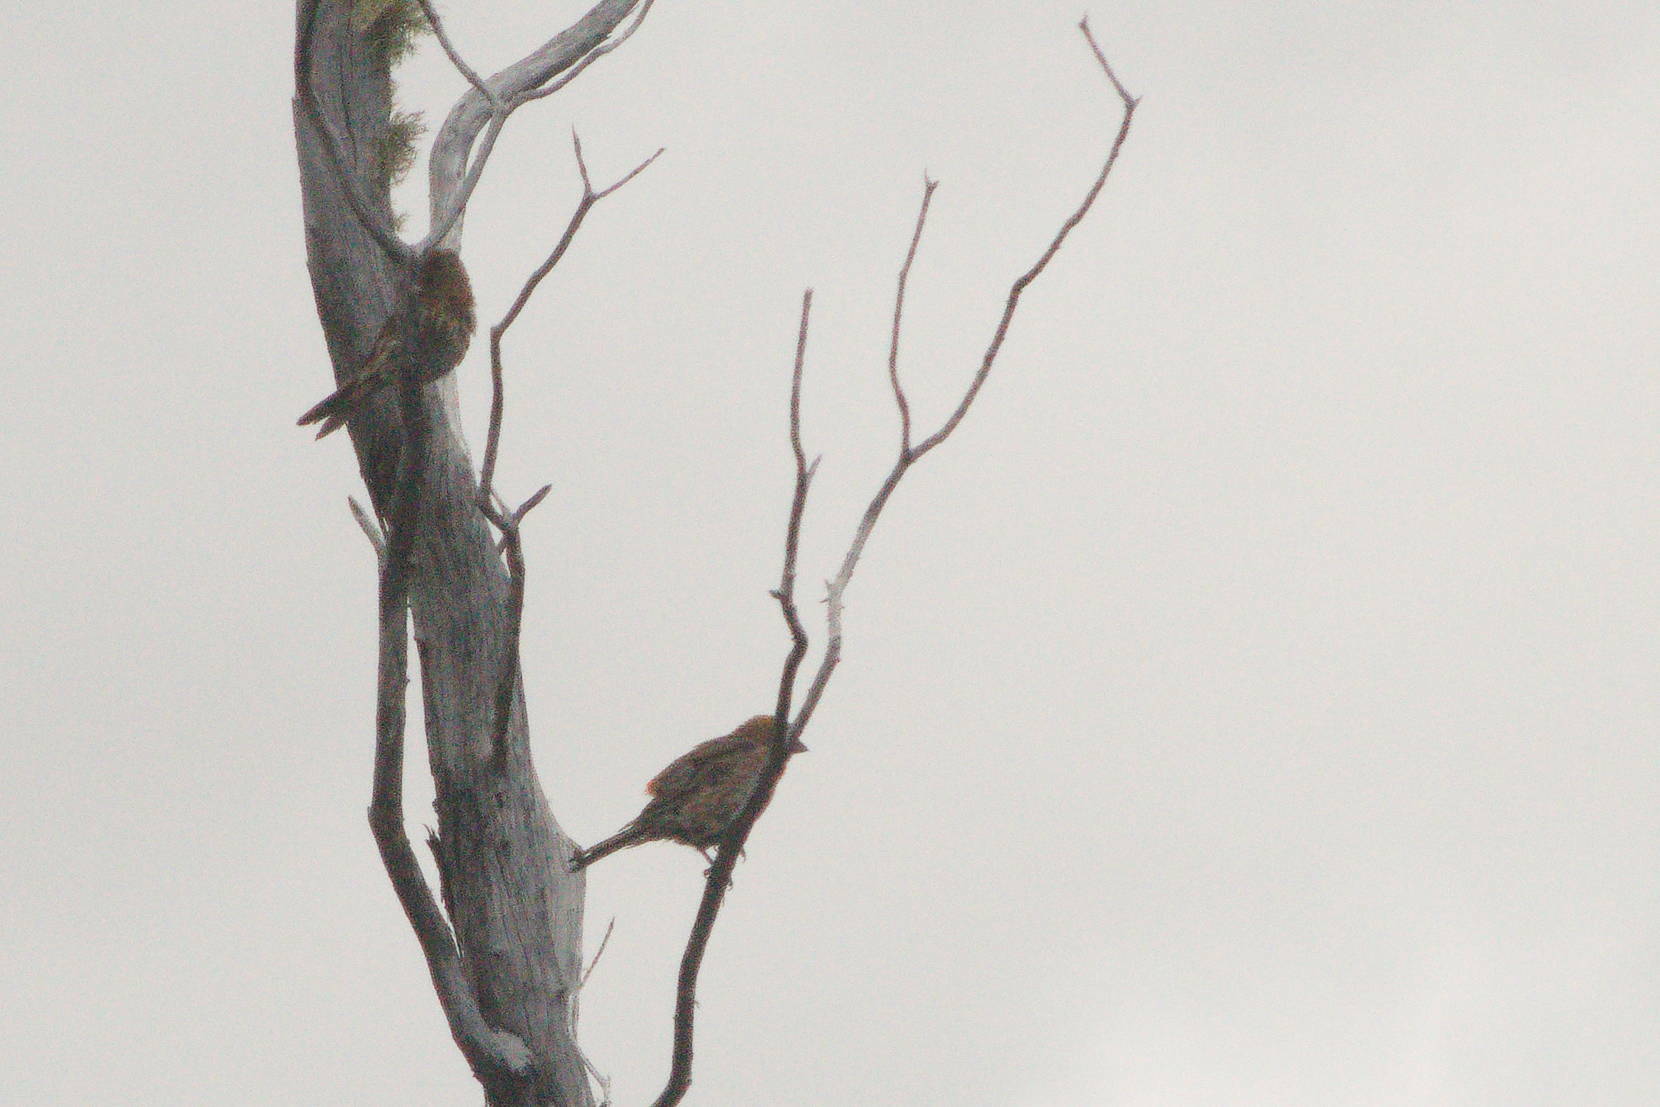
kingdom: Animalia
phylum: Chordata
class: Aves
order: Passeriformes
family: Fringillidae
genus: Haemorhous
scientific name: Haemorhous mexicanus
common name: House finch
